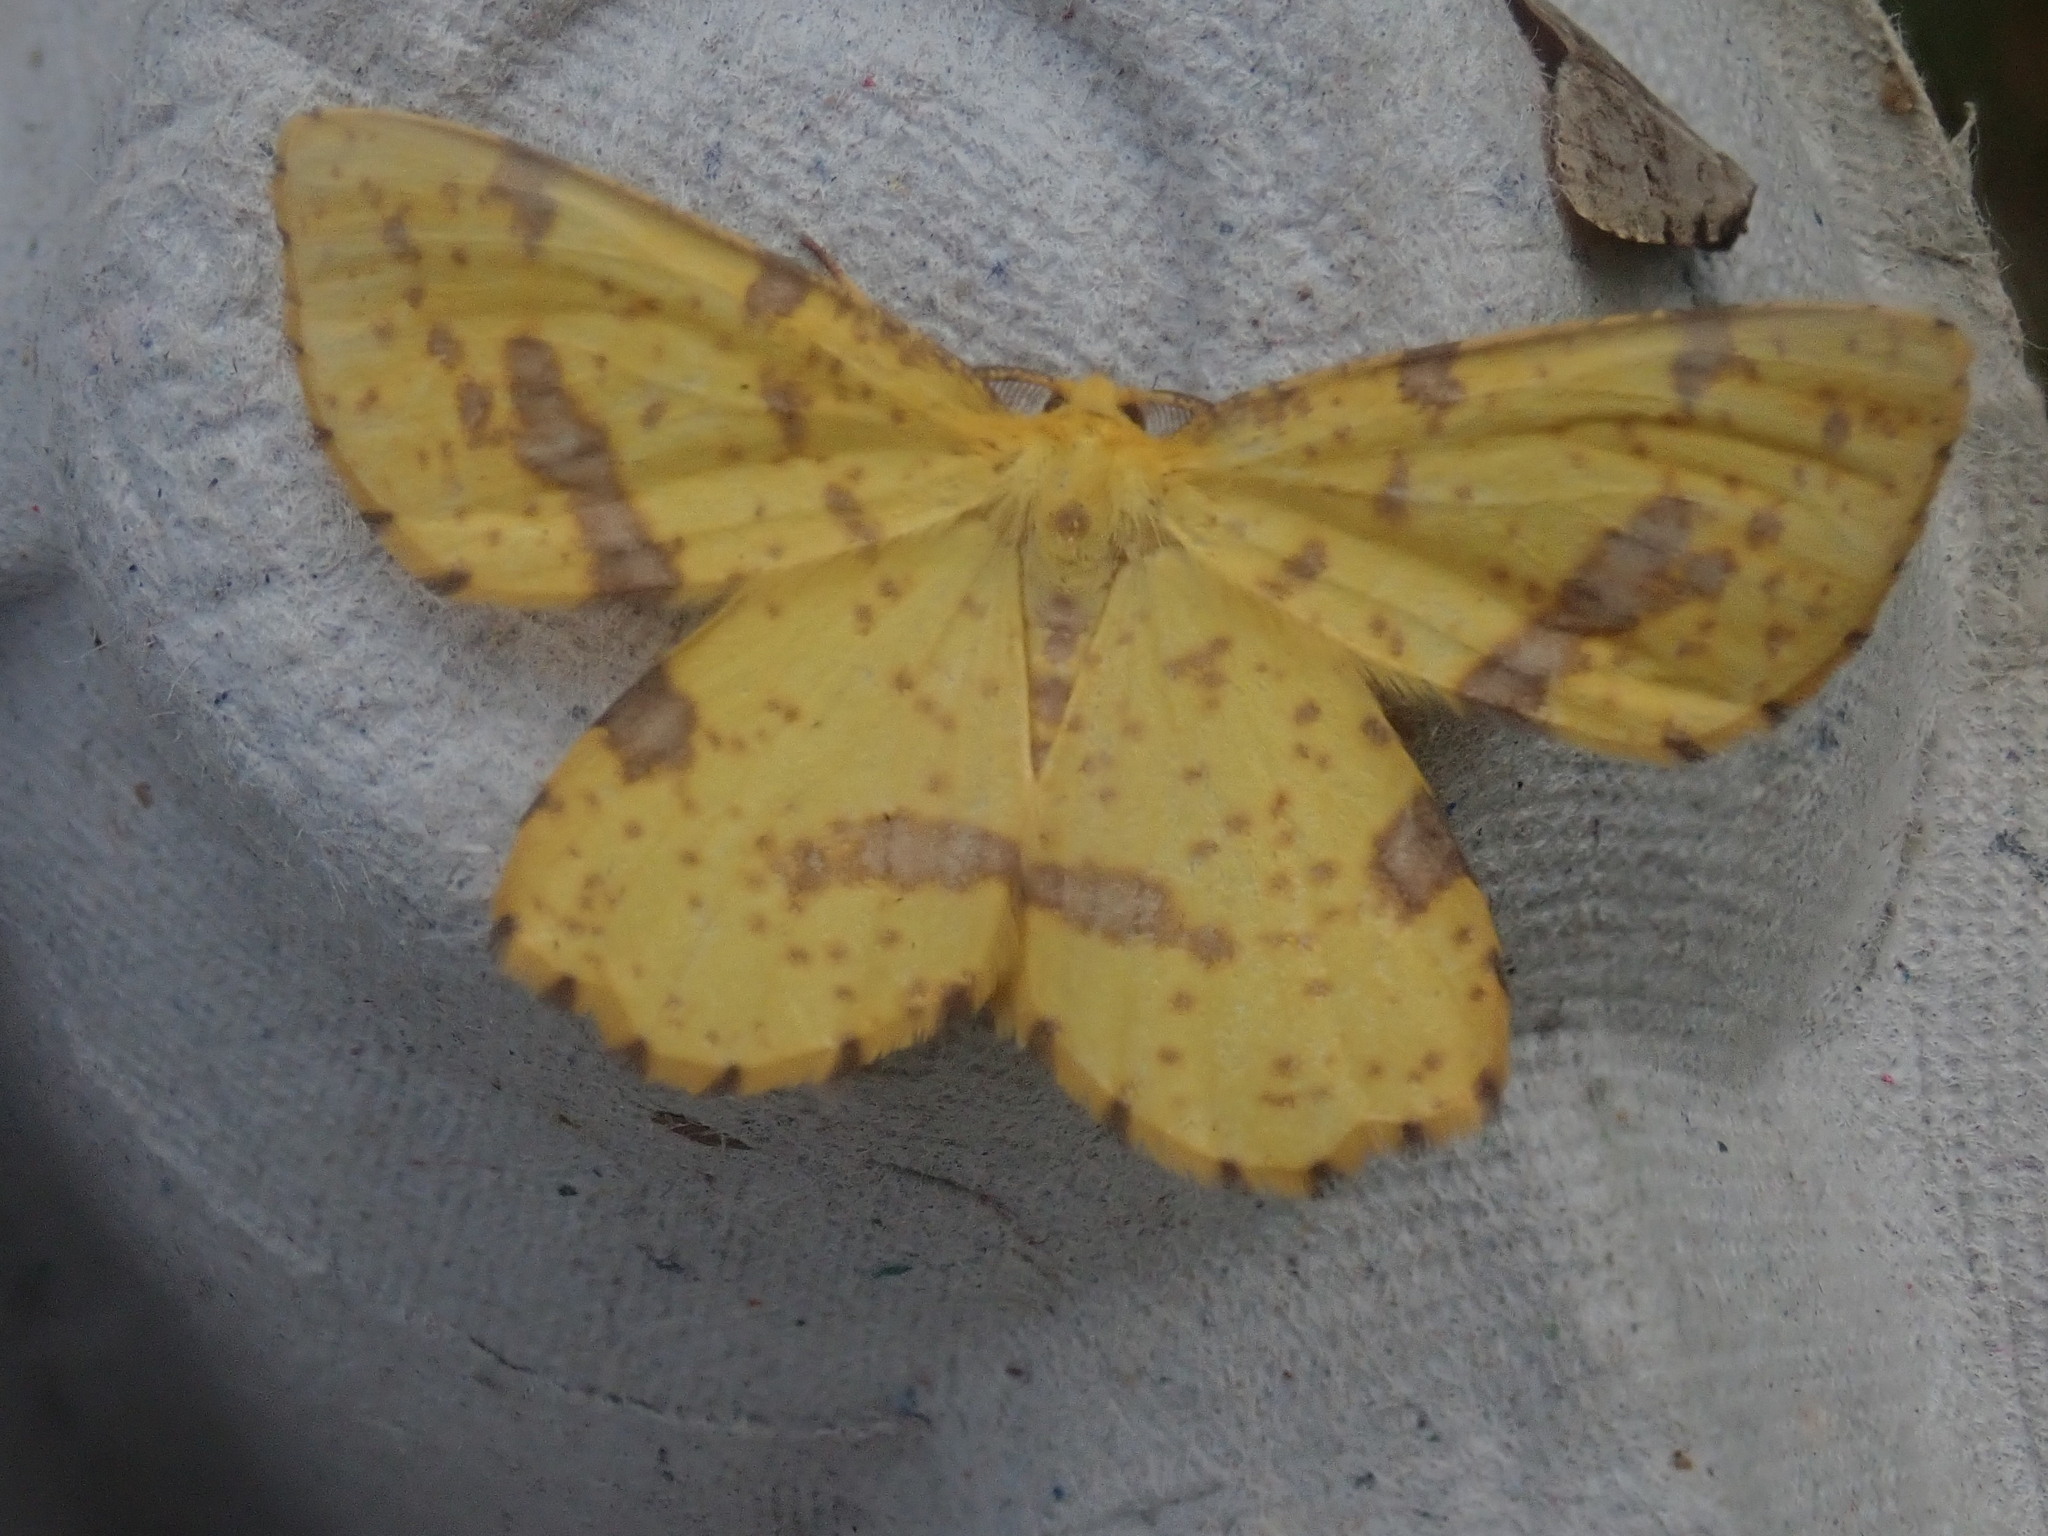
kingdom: Animalia
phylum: Arthropoda
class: Insecta
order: Lepidoptera
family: Geometridae
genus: Xanthotype
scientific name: Xanthotype
